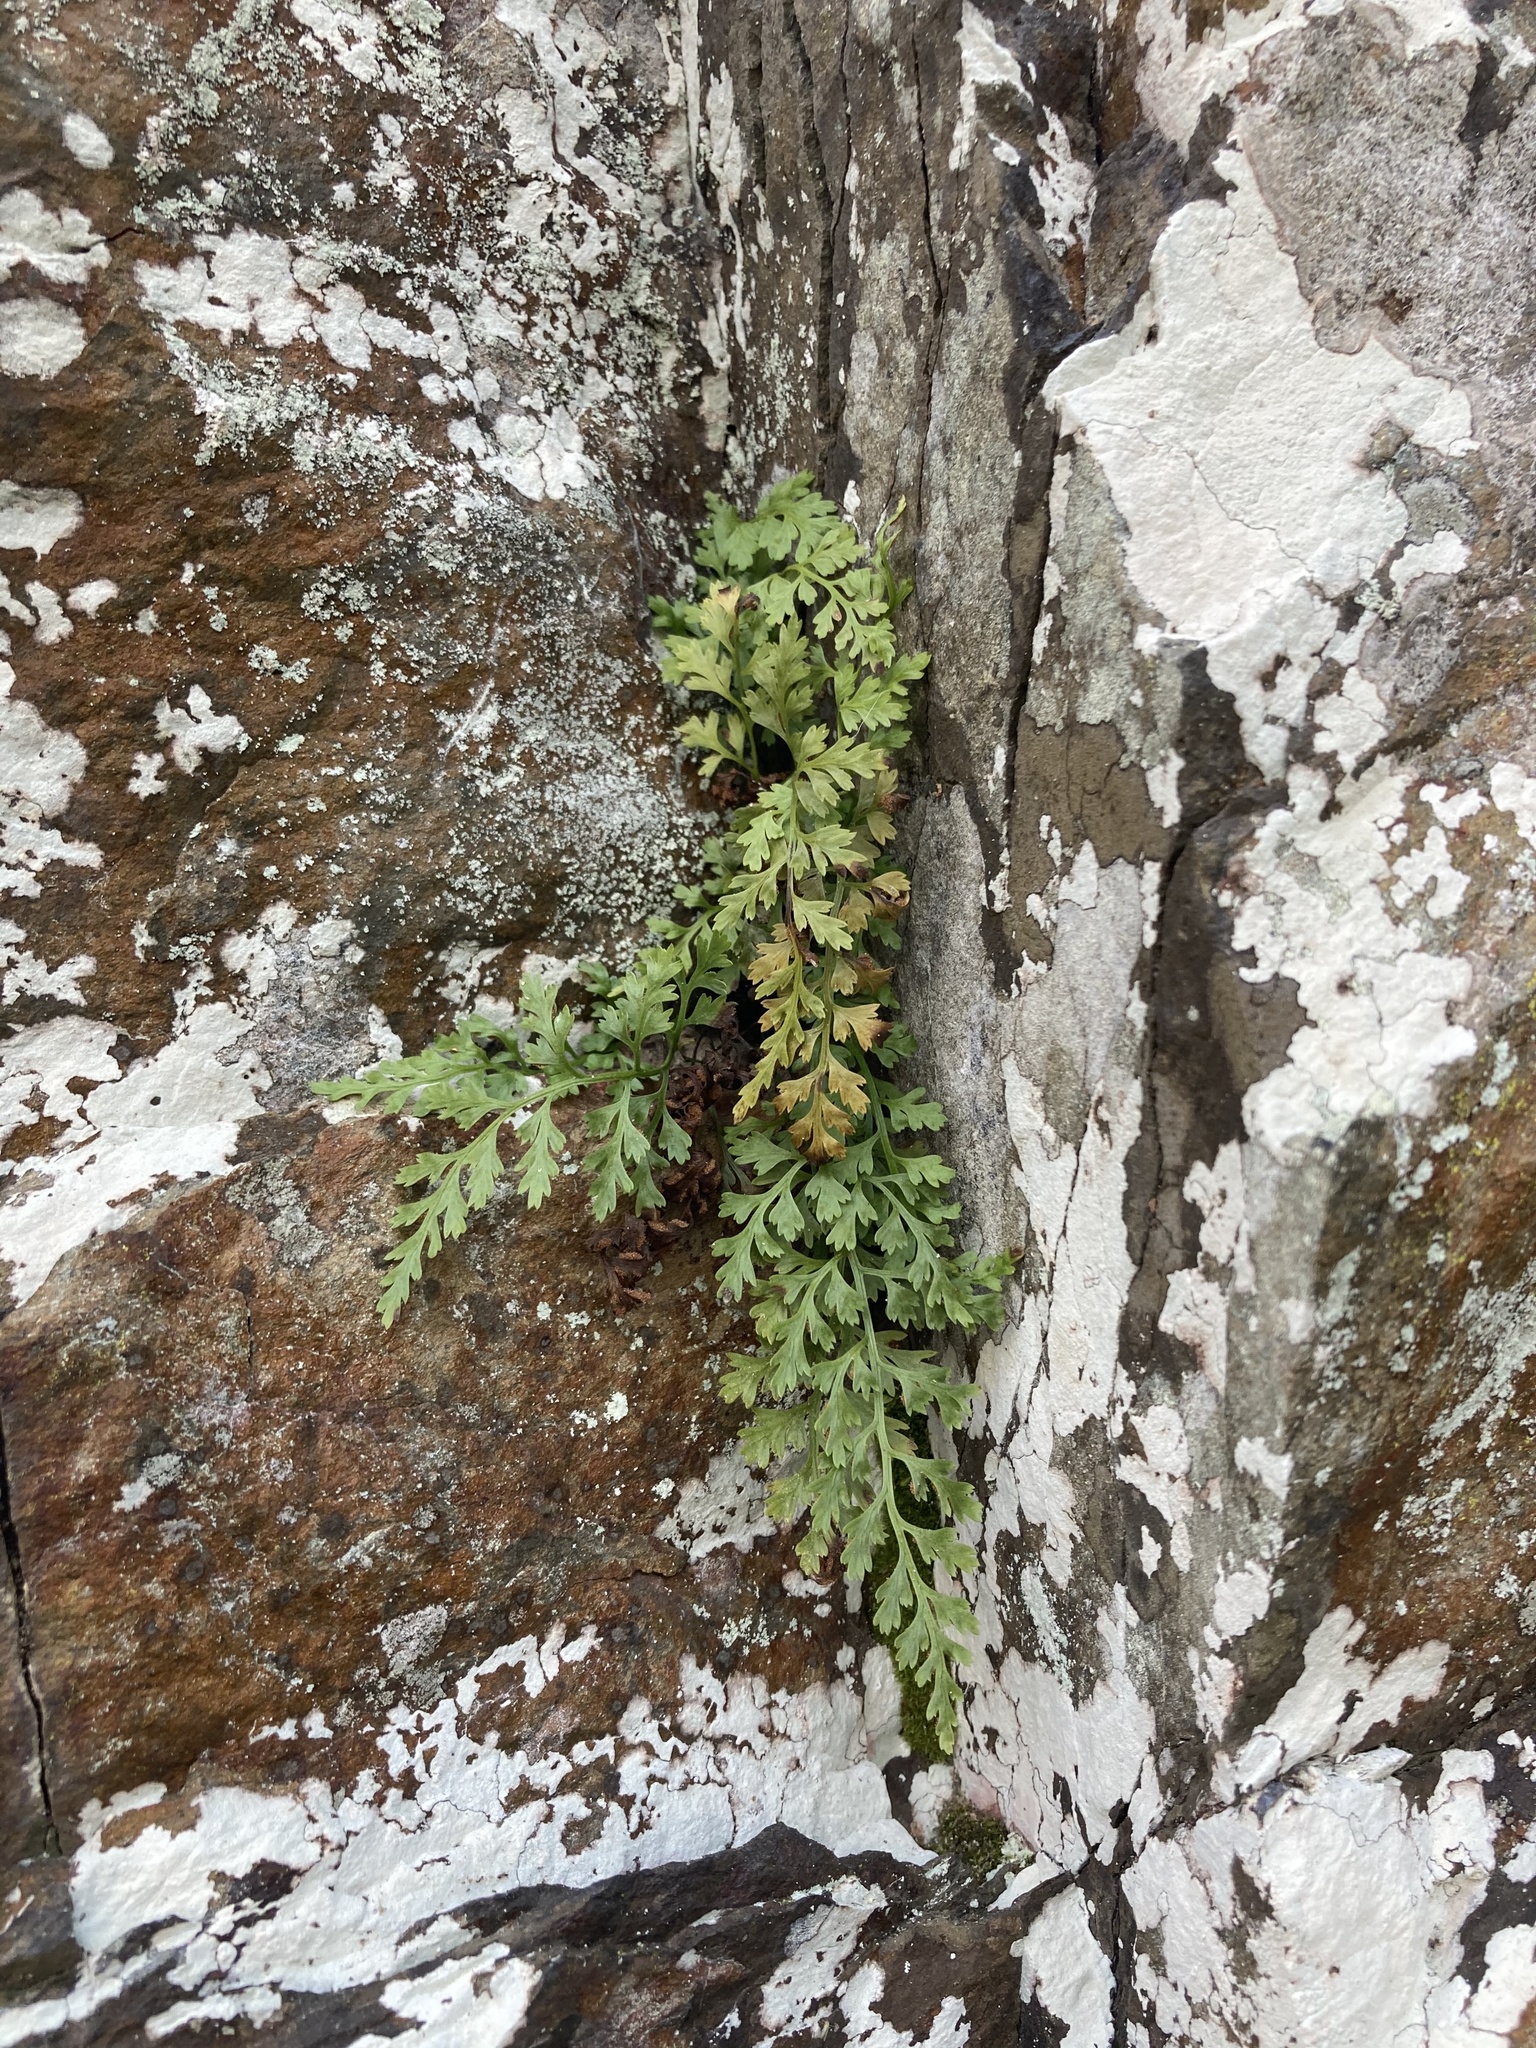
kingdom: Plantae
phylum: Tracheophyta
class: Polypodiopsida
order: Polypodiales
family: Aspleniaceae
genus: Asplenium
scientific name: Asplenium montanum
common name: Mountain spleenwort
